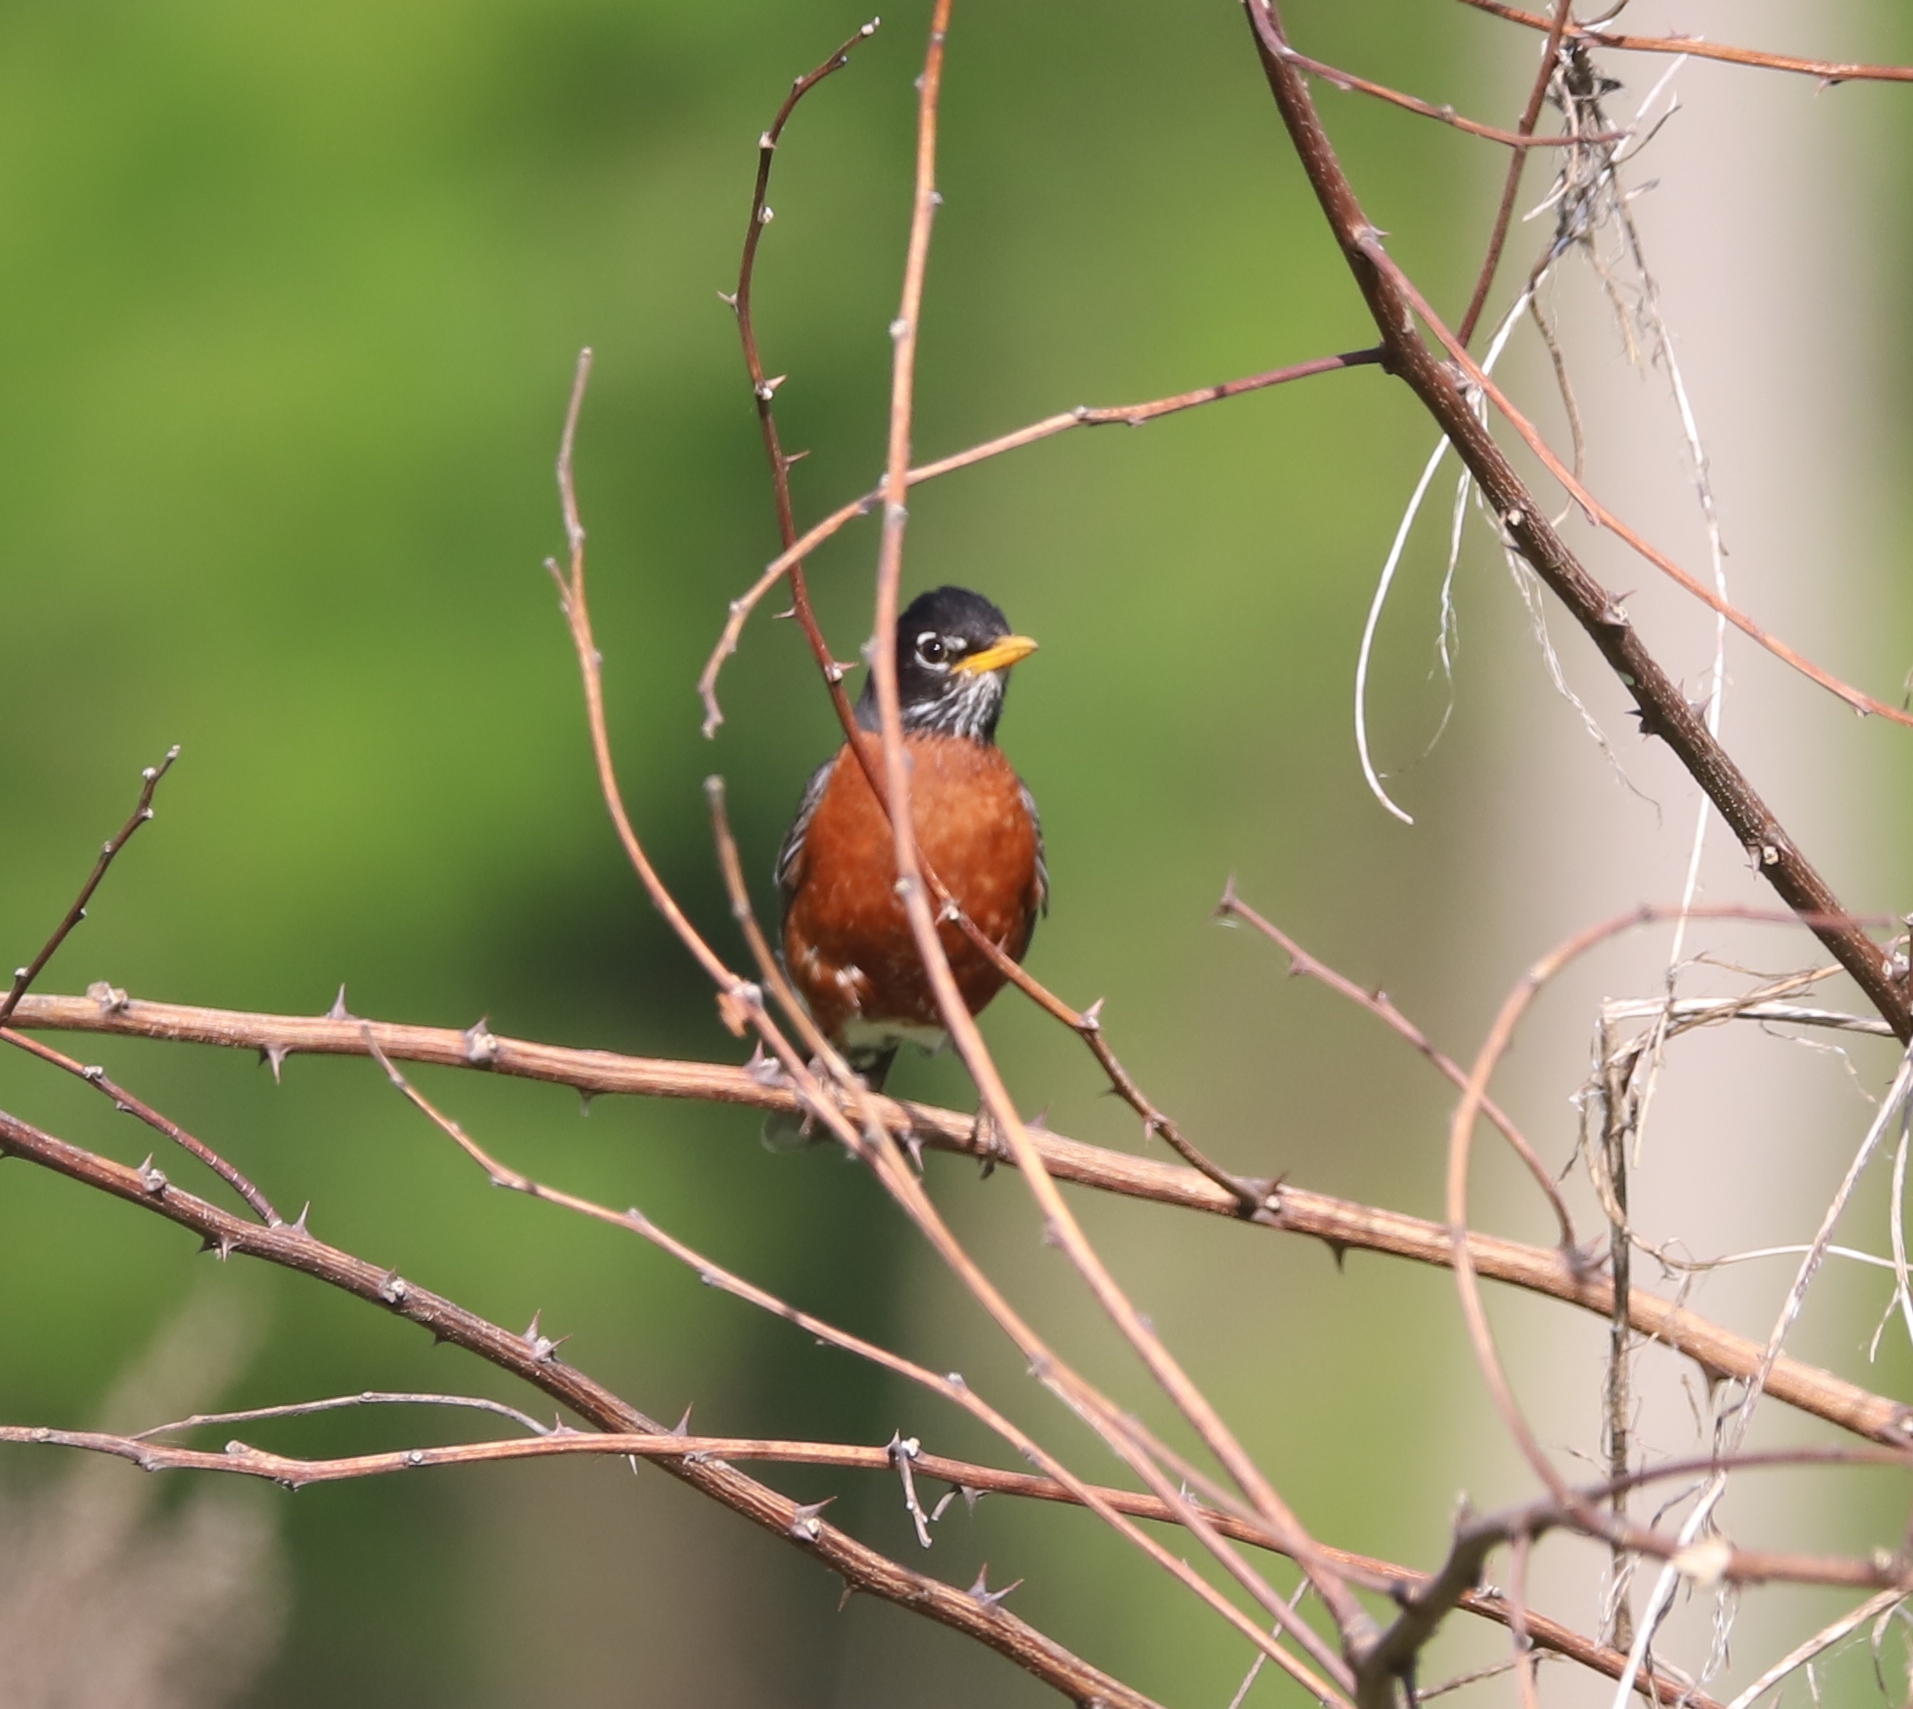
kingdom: Animalia
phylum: Chordata
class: Aves
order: Passeriformes
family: Turdidae
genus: Turdus
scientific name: Turdus migratorius
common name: American robin
